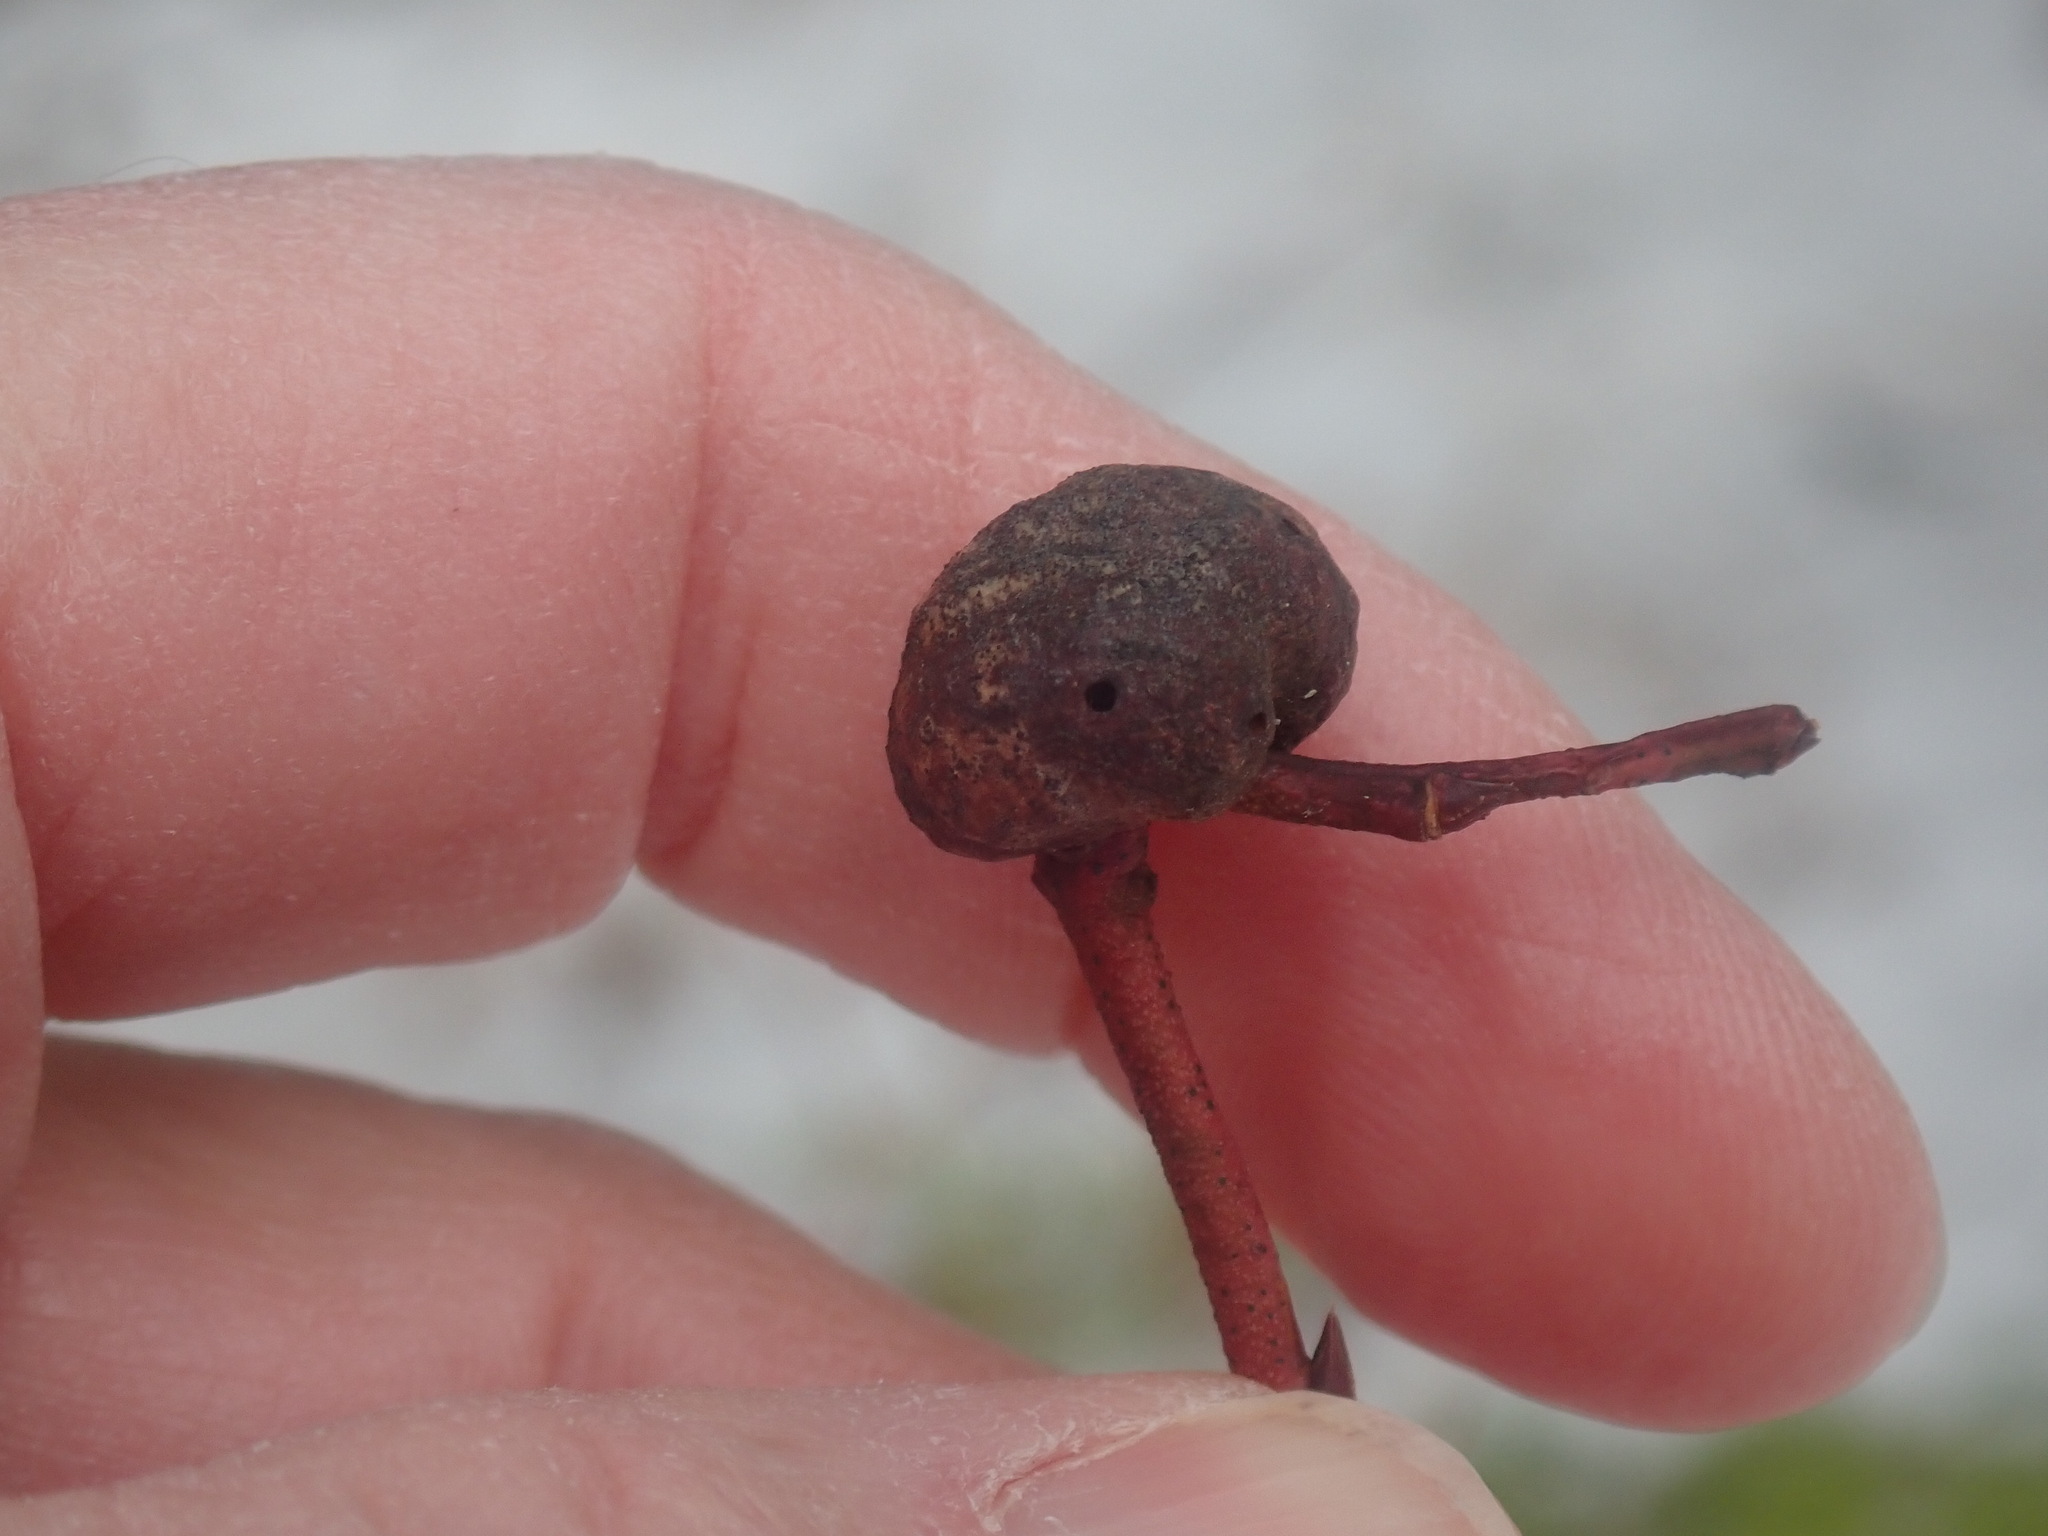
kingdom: Animalia
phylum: Arthropoda
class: Insecta
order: Hymenoptera
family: Pteromalidae
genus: Hemadas
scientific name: Hemadas nubilipennis
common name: Blueberry stem gall wasp
